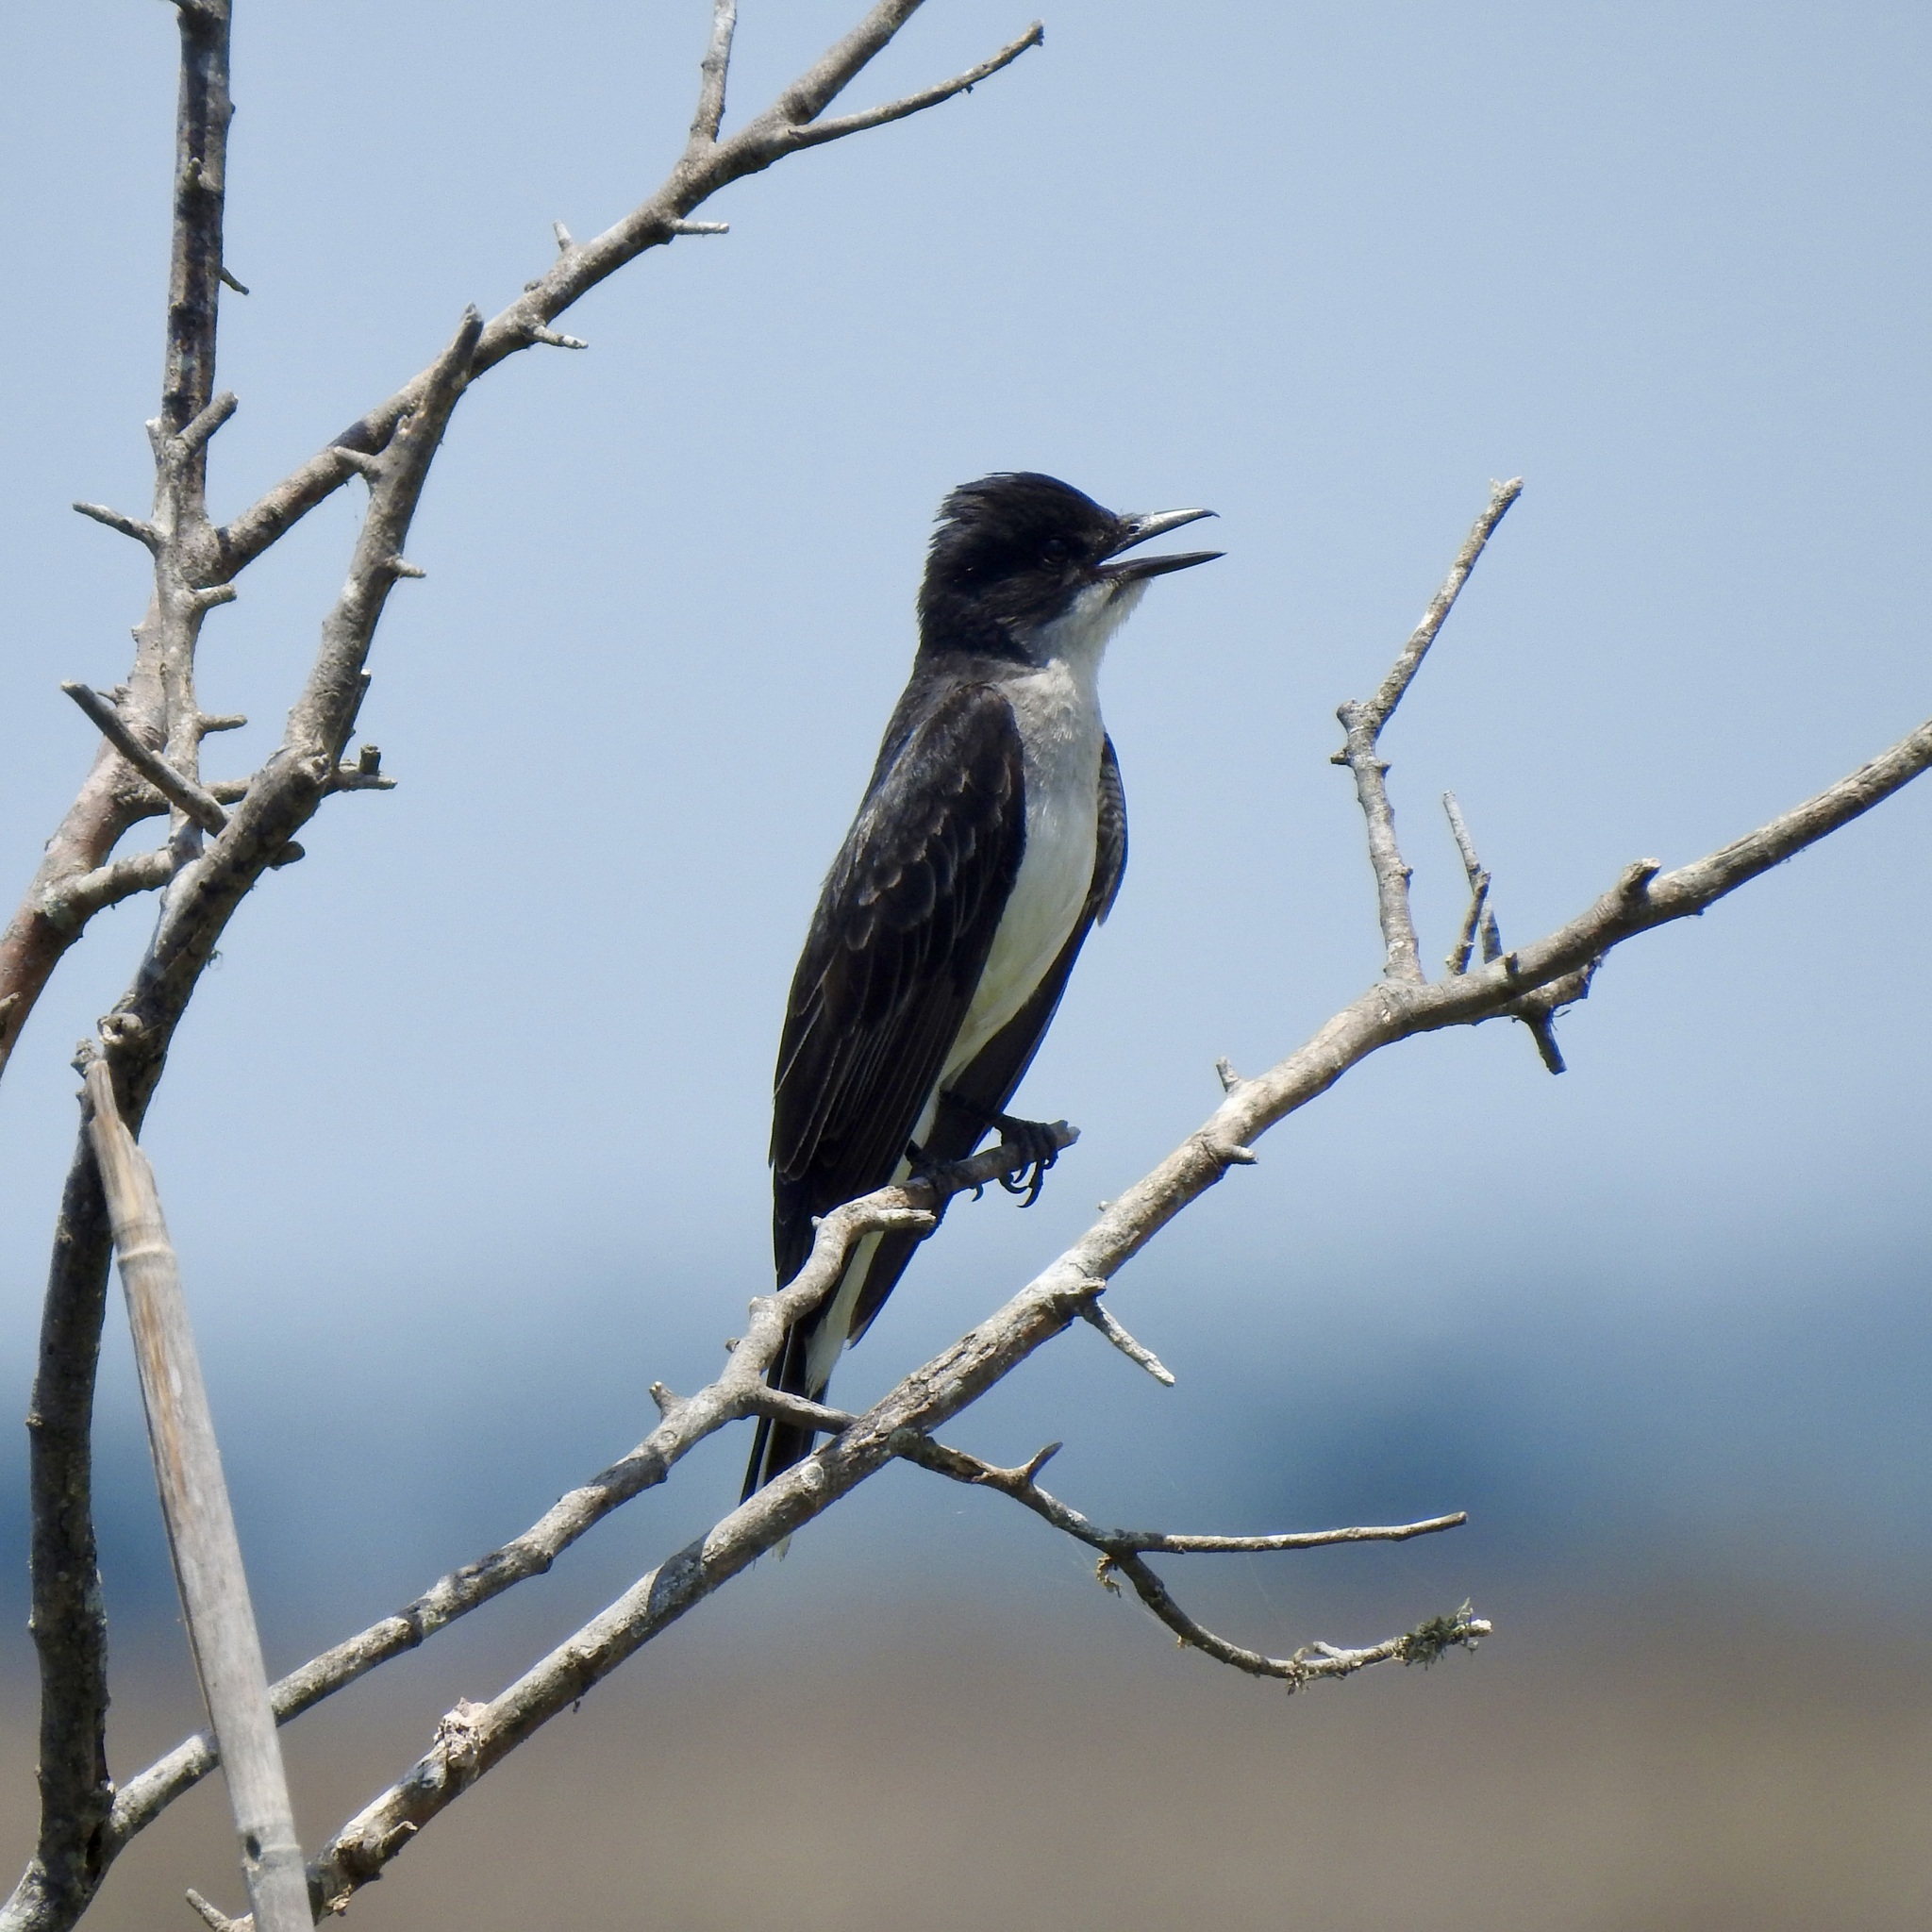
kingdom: Animalia
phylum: Chordata
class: Aves
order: Passeriformes
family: Tyrannidae
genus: Tyrannus
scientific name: Tyrannus tyrannus
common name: Eastern kingbird
